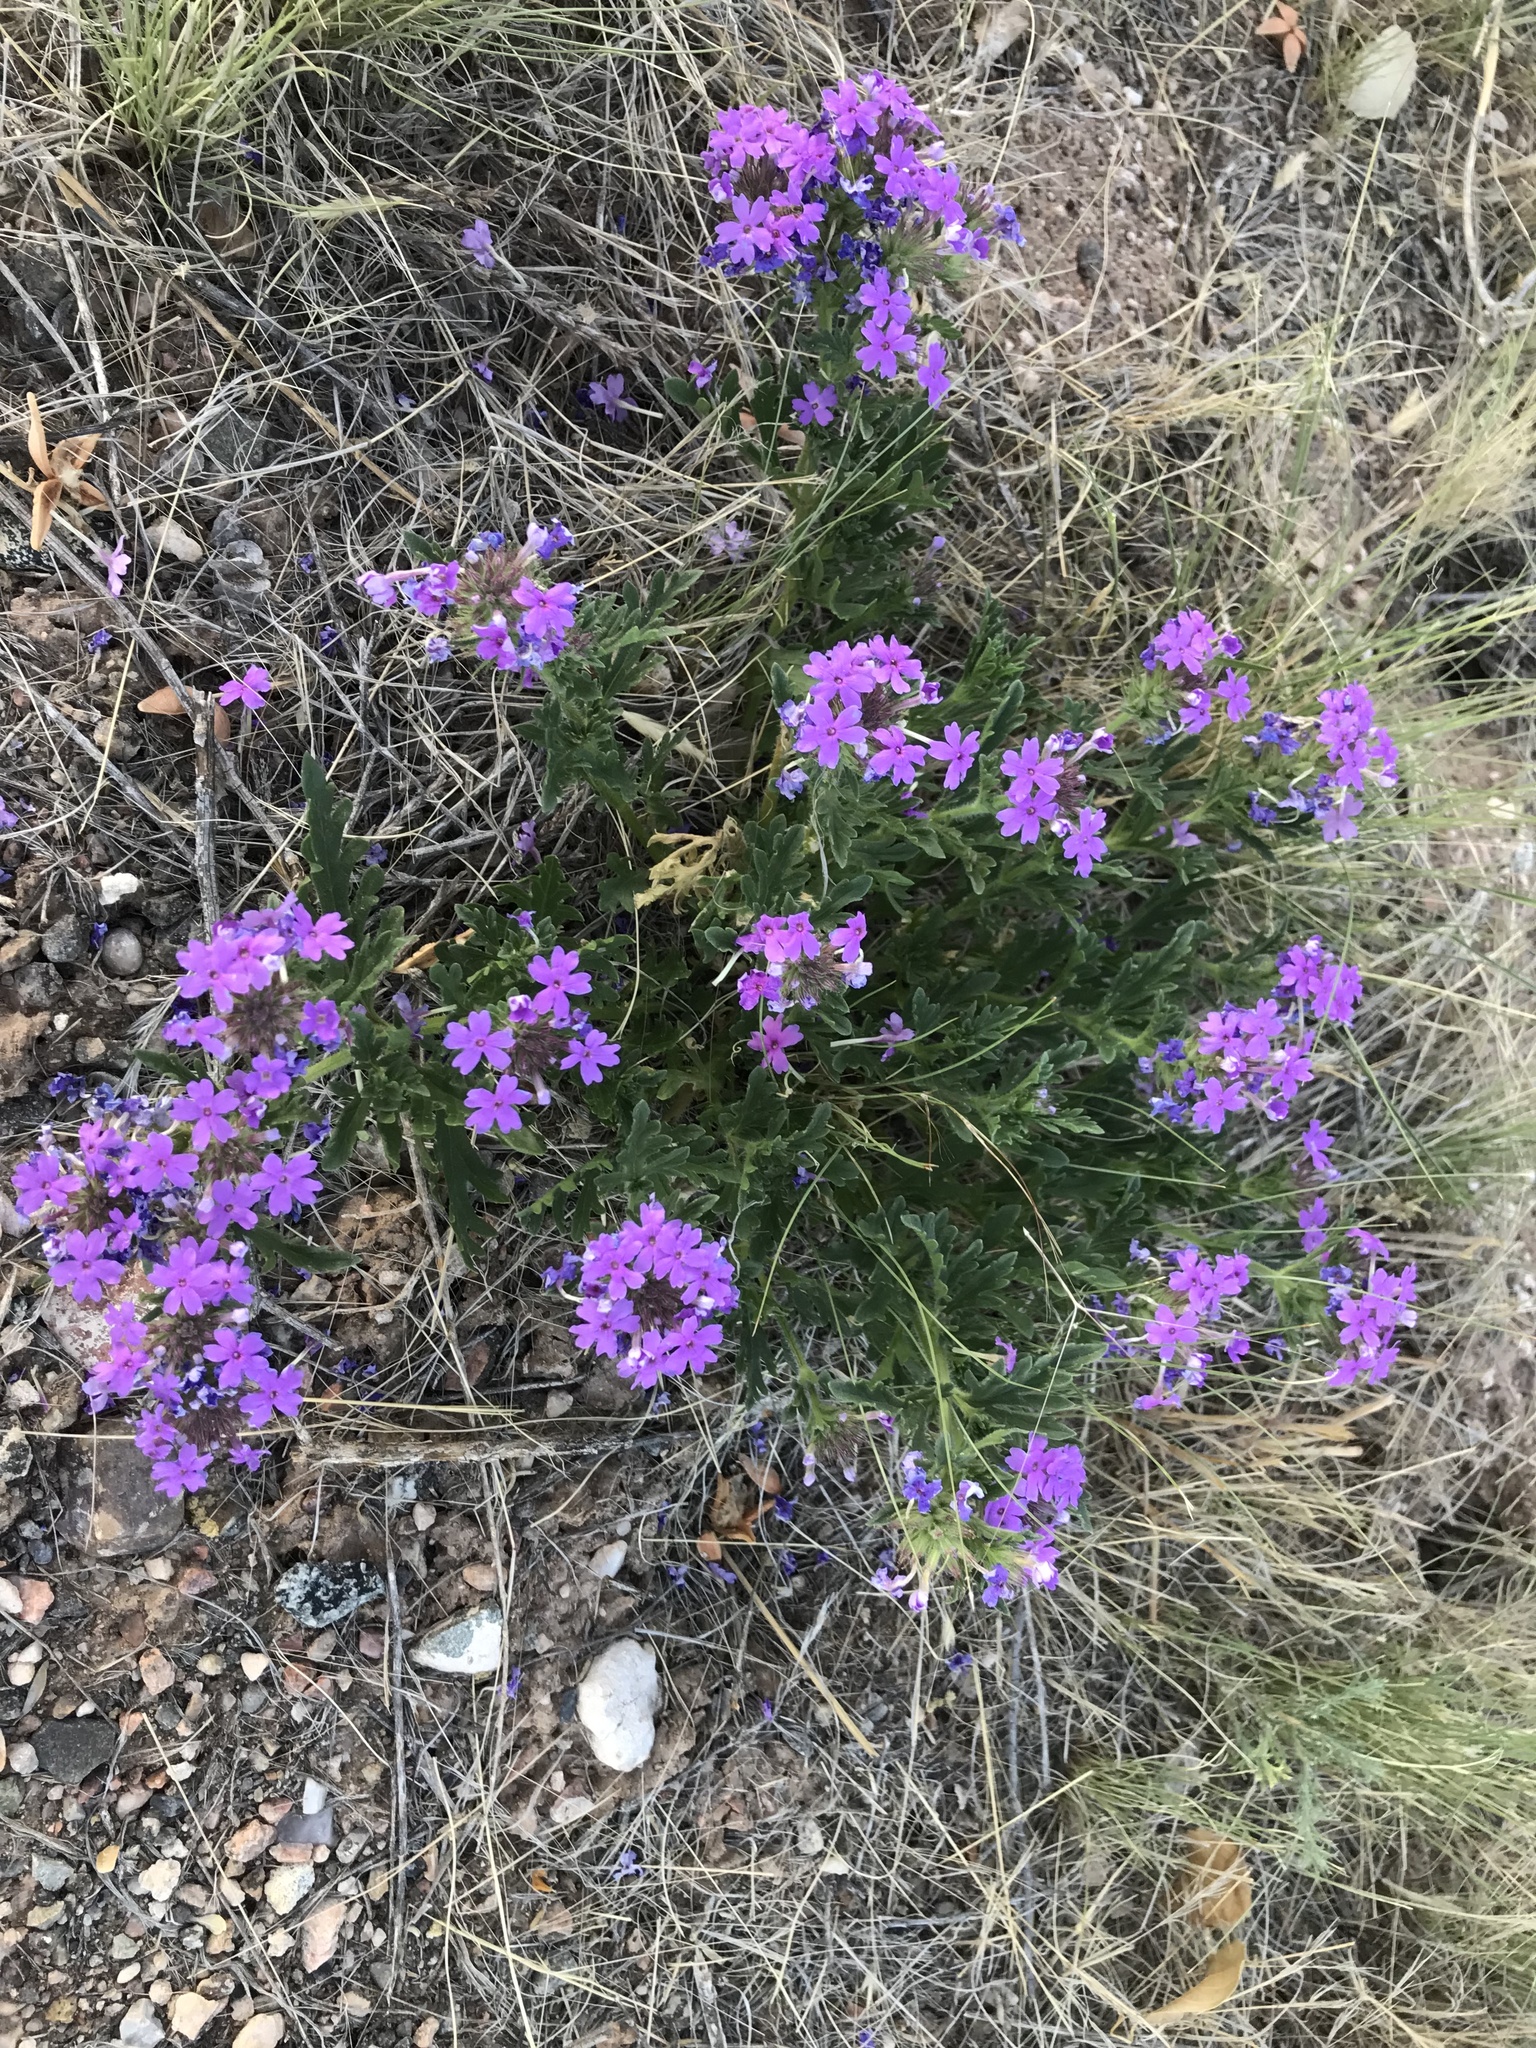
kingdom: Plantae
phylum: Tracheophyta
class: Magnoliopsida
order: Lamiales
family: Verbenaceae
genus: Verbena
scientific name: Verbena bipinnatifida
